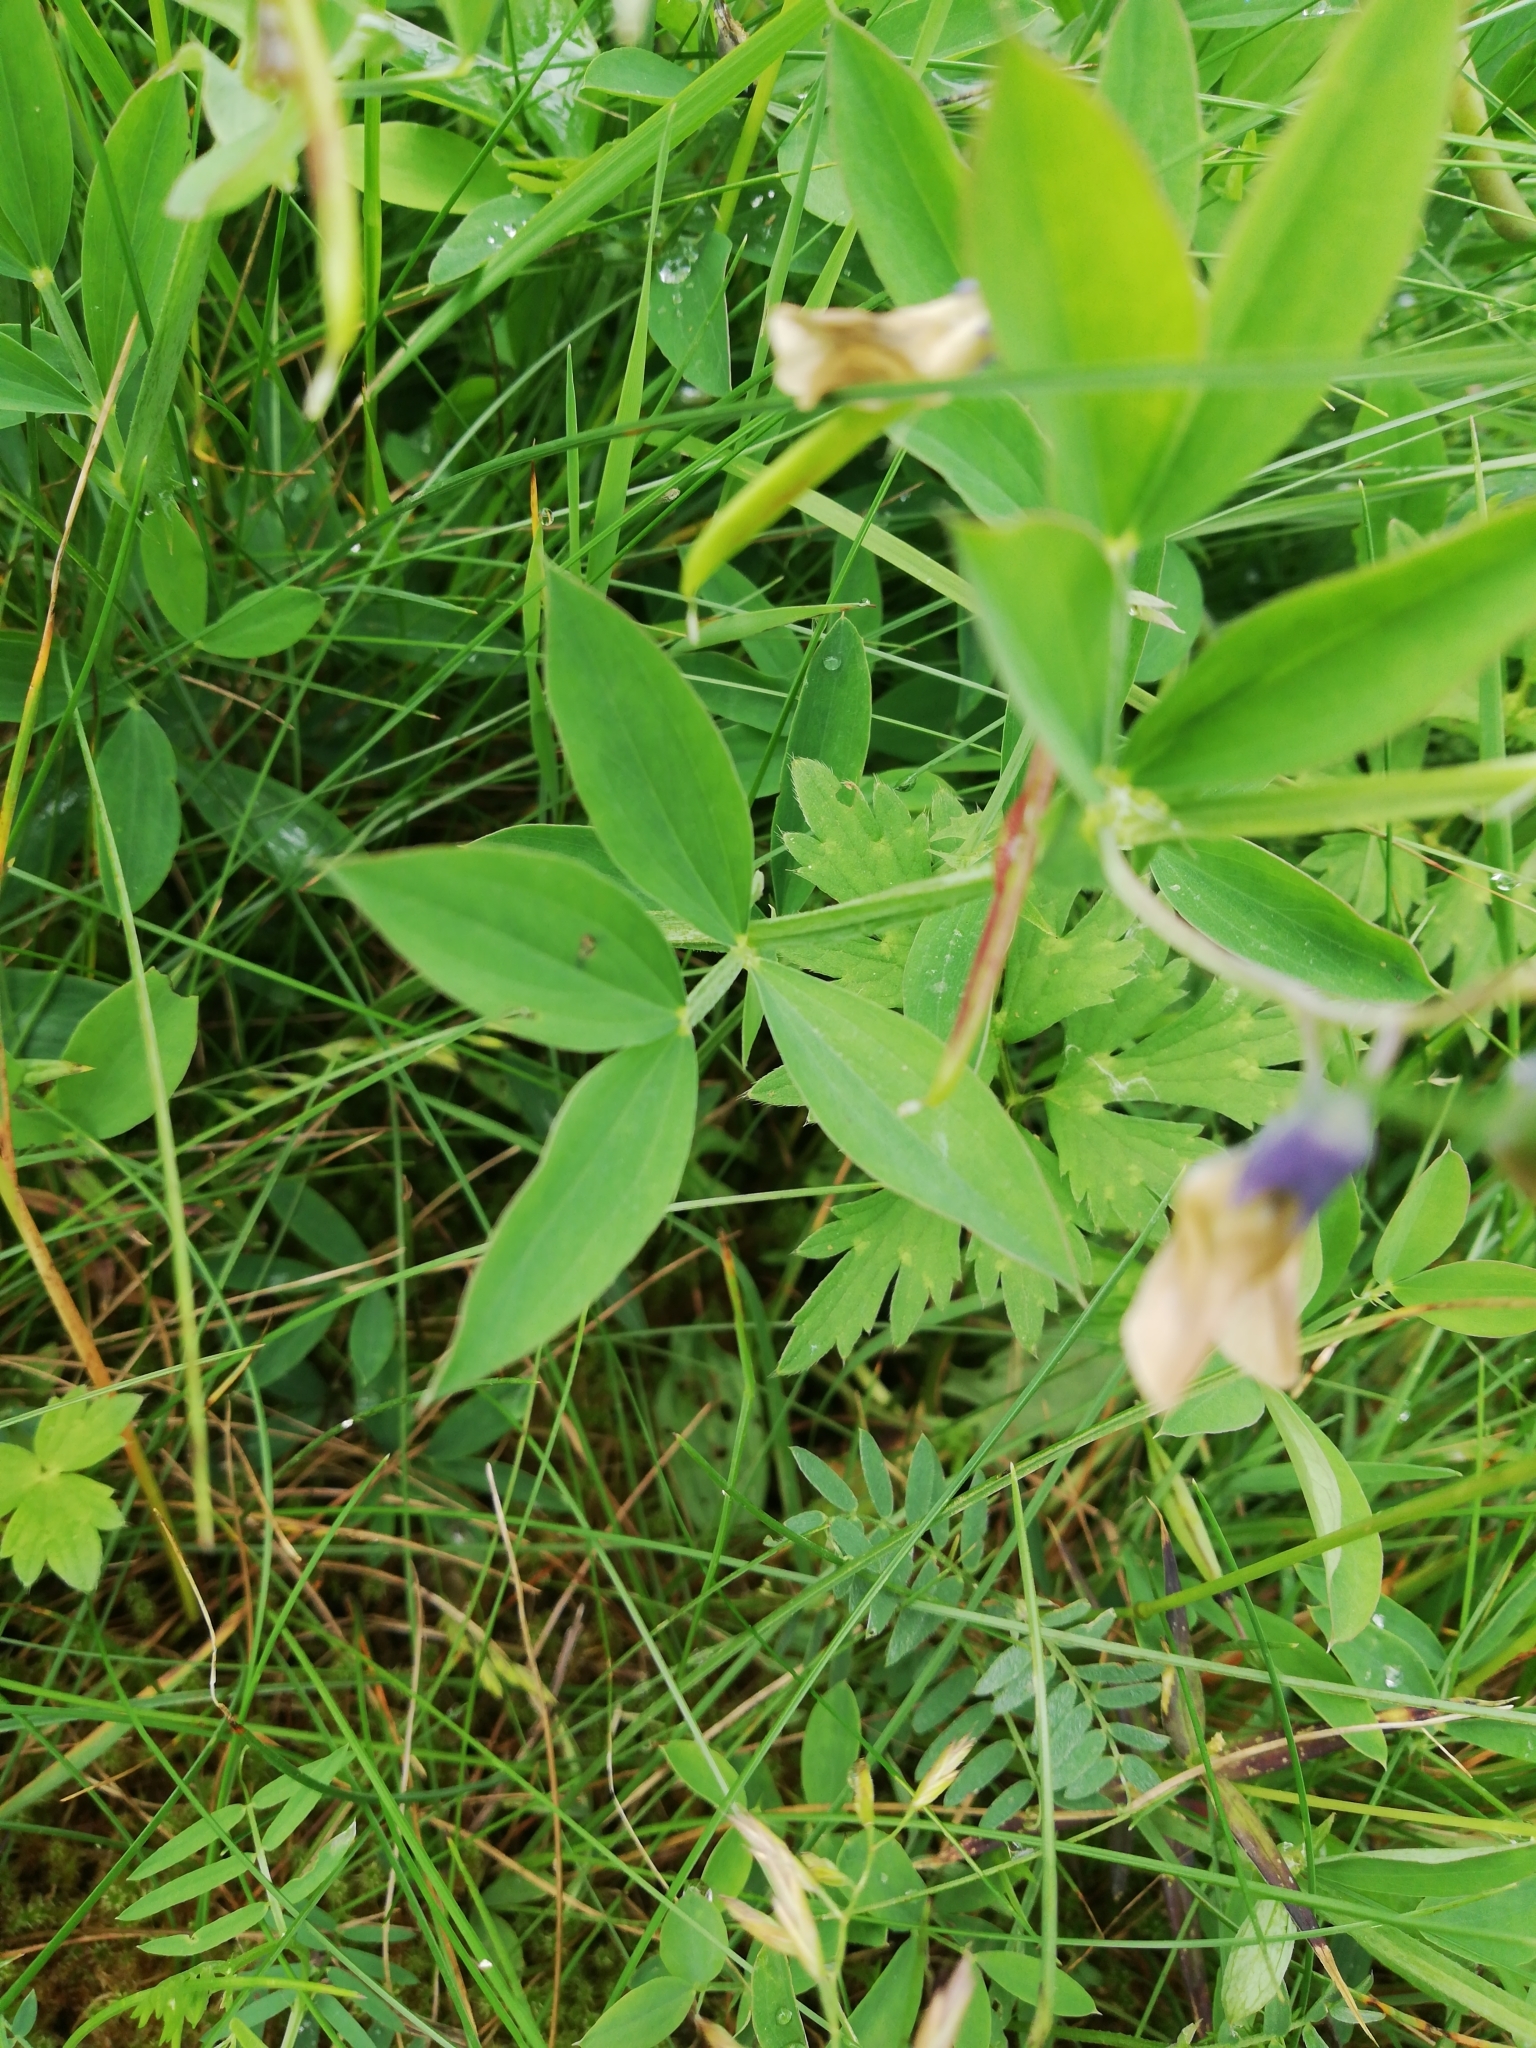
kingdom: Plantae
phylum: Tracheophyta
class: Magnoliopsida
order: Fabales
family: Fabaceae
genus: Lathyrus
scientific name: Lathyrus linifolius
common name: Bitter-vetch
